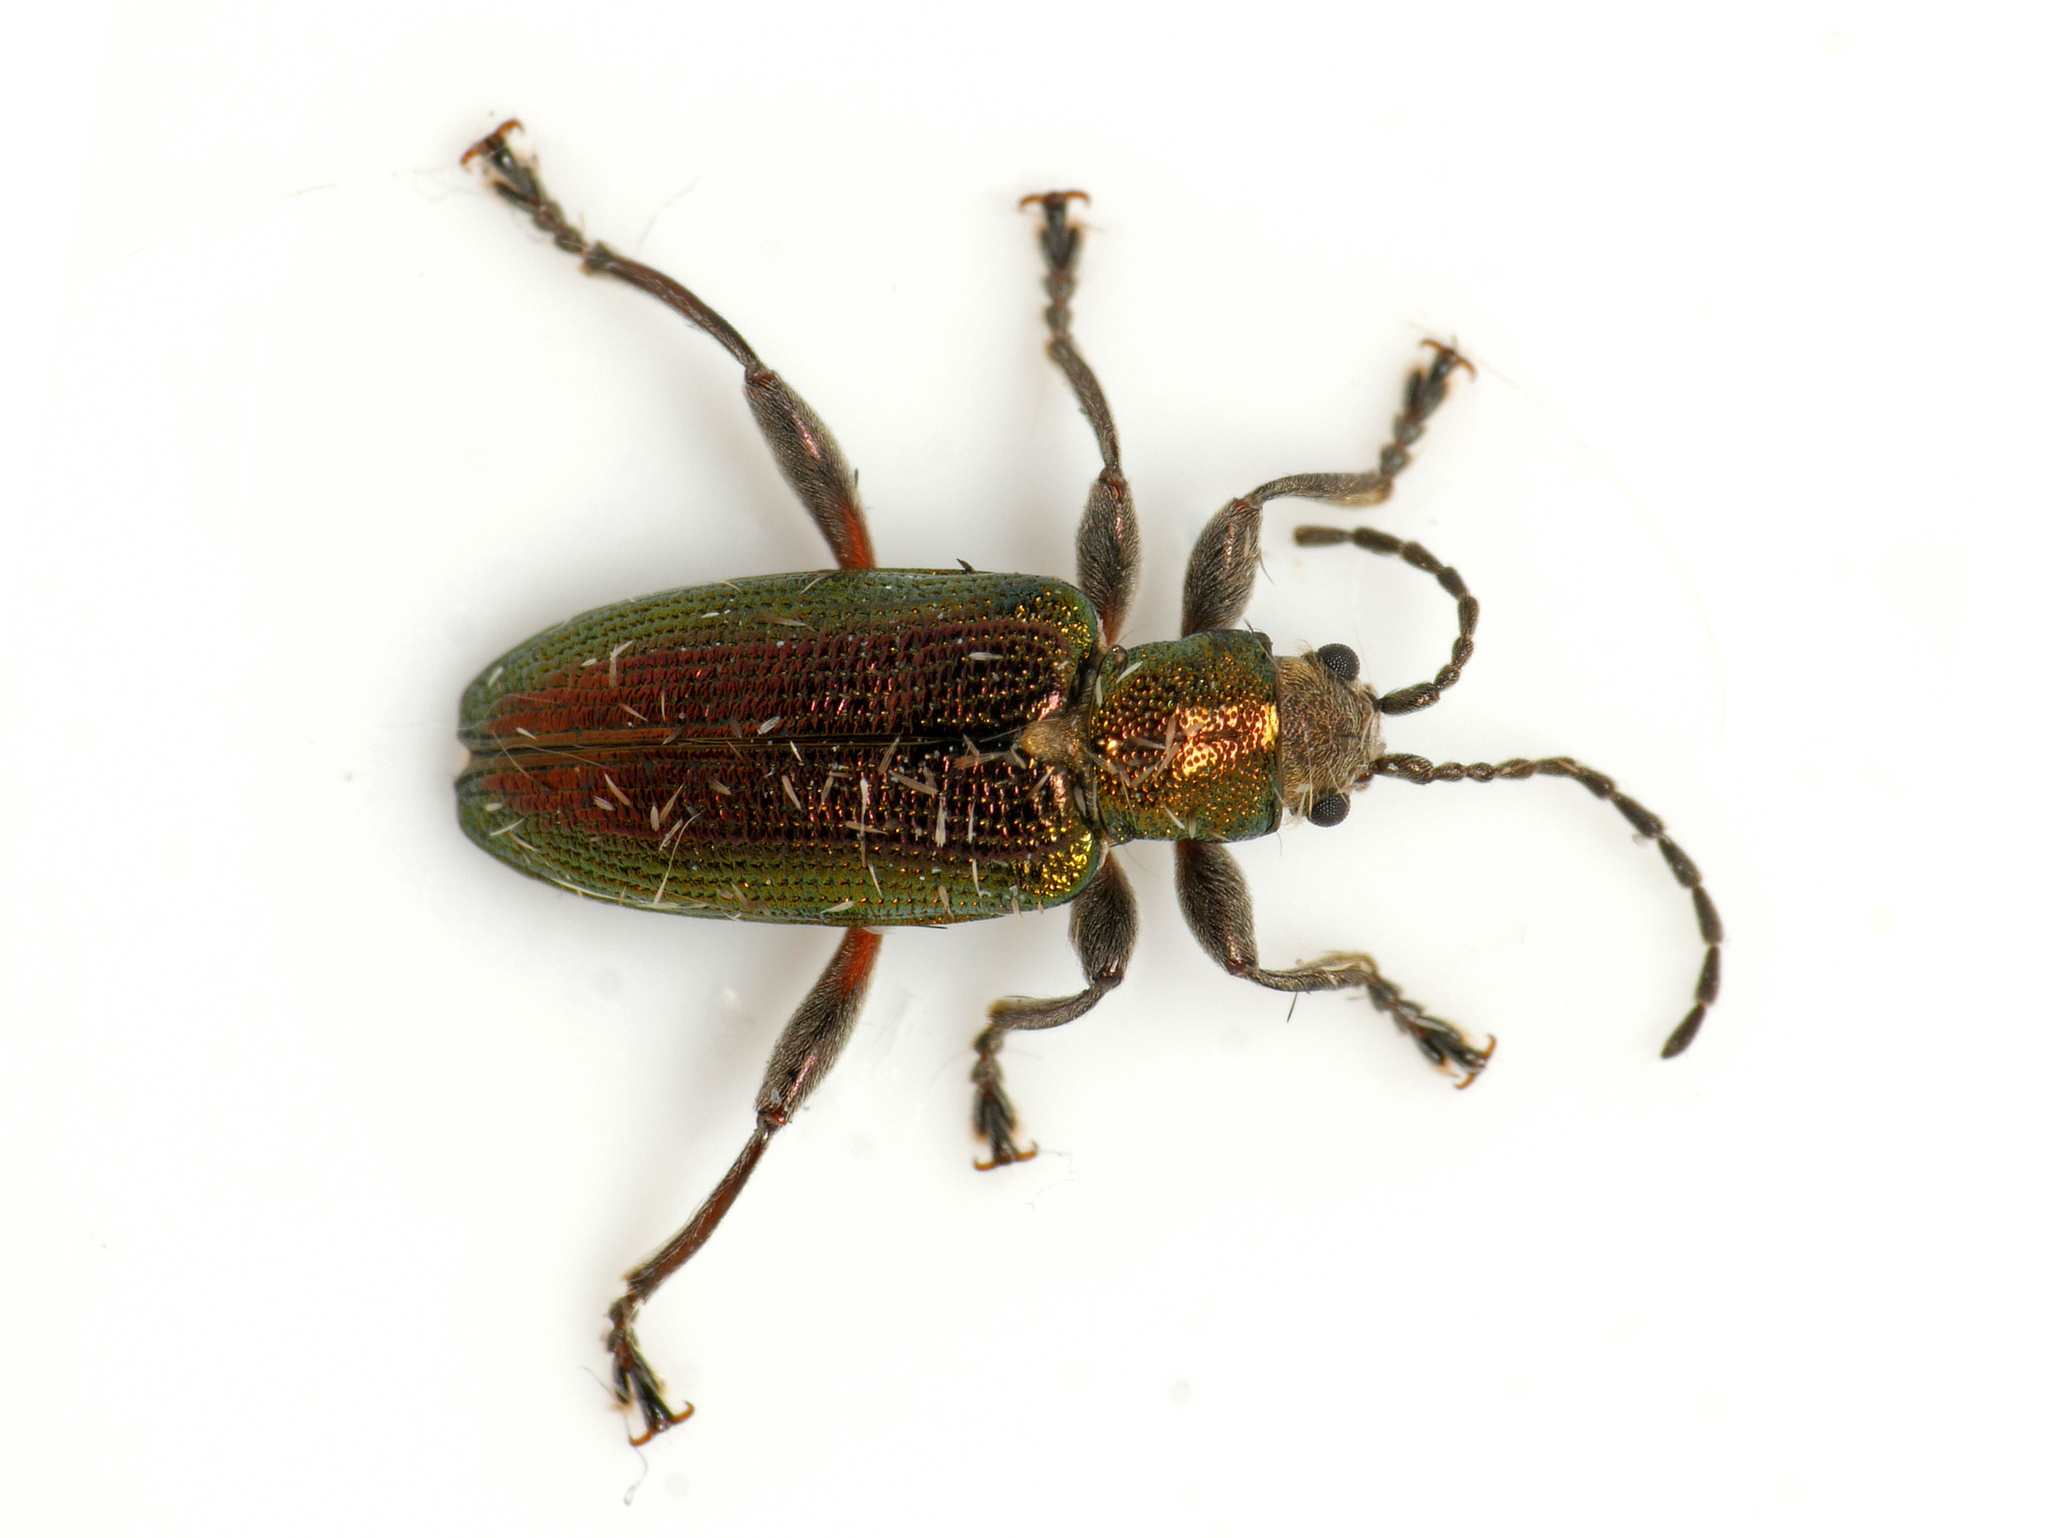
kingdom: Animalia
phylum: Arthropoda
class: Insecta
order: Coleoptera
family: Chrysomelidae
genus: Donacia
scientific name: Donacia semicuprea
